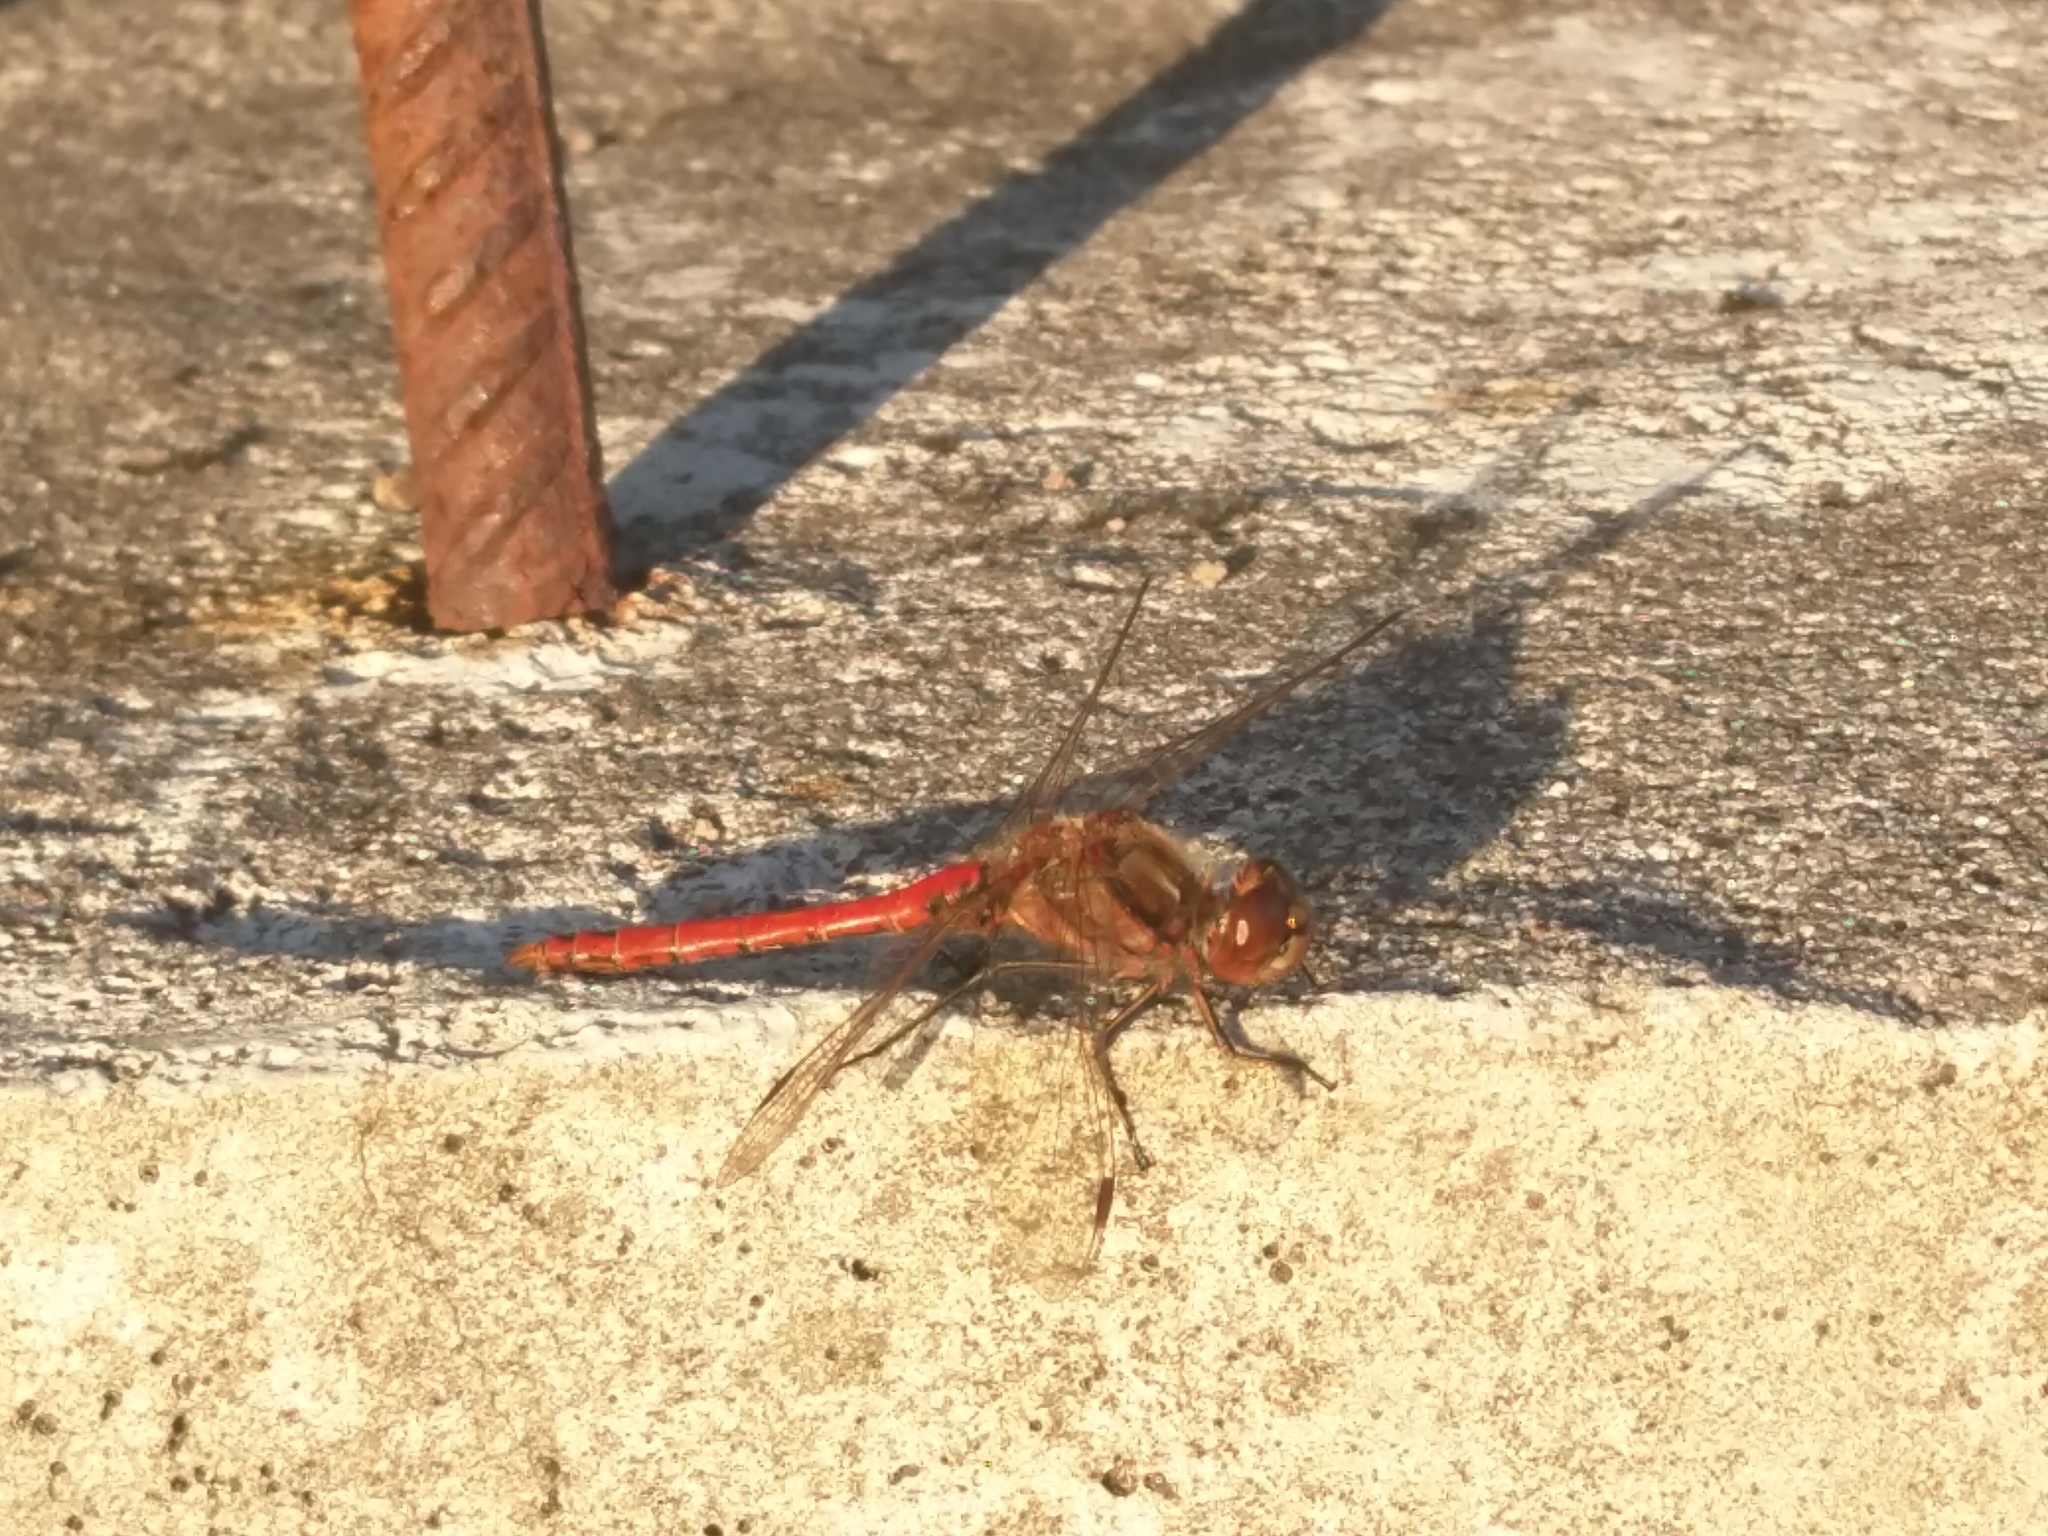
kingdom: Animalia
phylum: Arthropoda
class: Insecta
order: Odonata
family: Libellulidae
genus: Sympetrum
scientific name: Sympetrum vulgatum
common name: Vagrant darter
